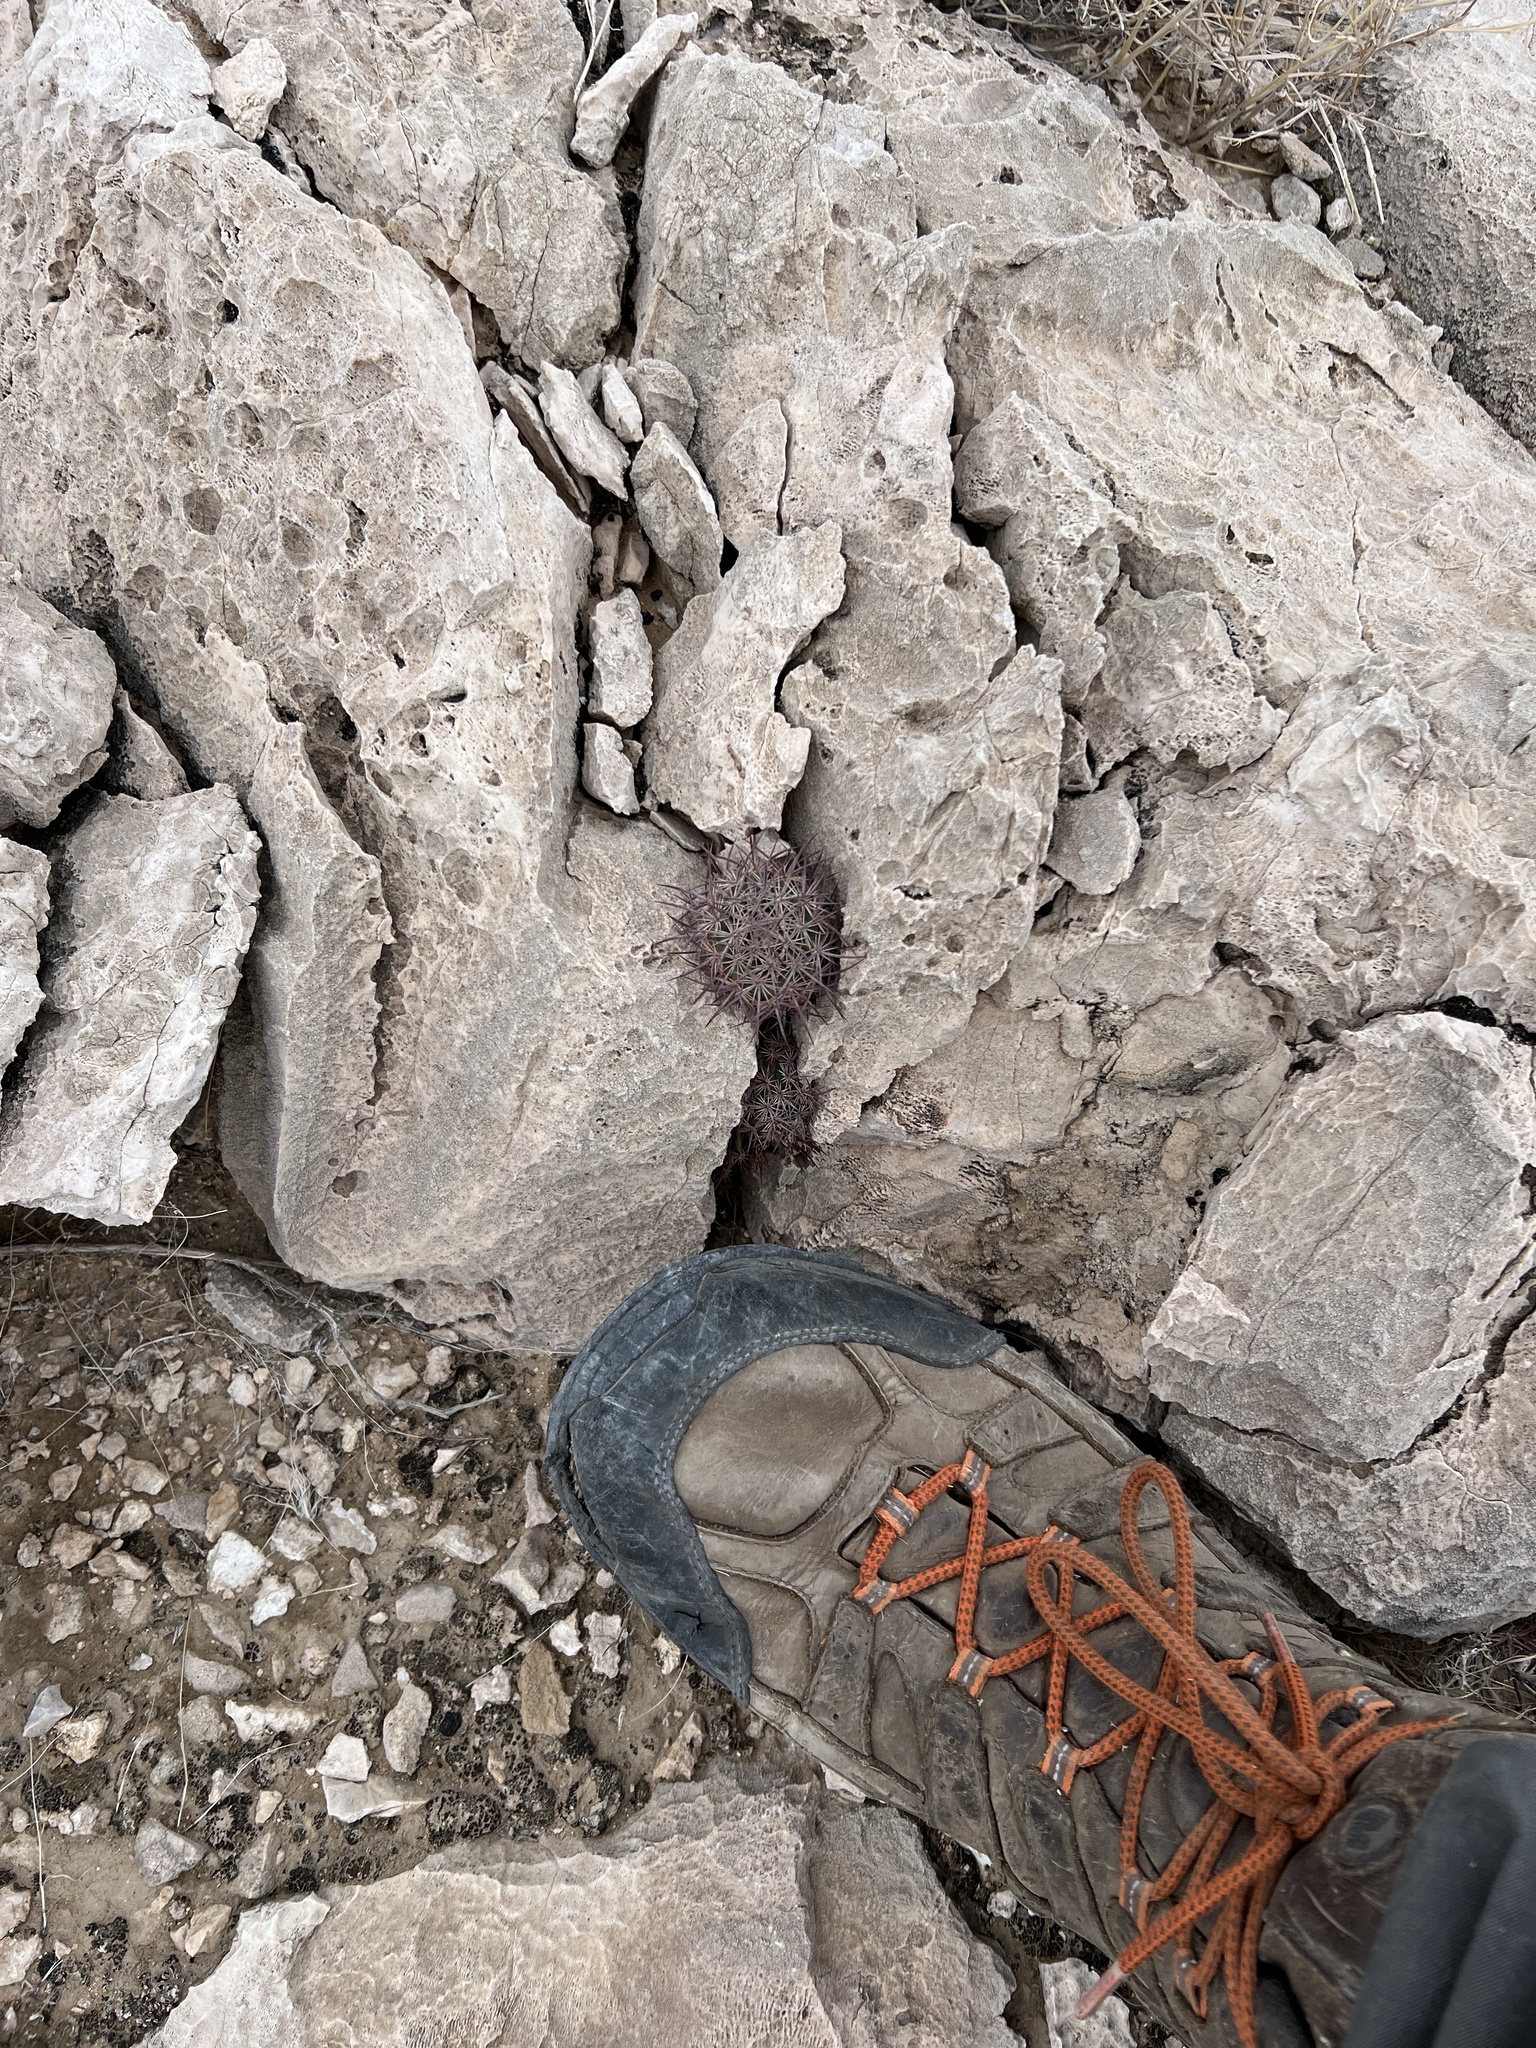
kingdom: Plantae
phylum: Tracheophyta
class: Magnoliopsida
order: Caryophyllales
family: Cactaceae
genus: Sclerocactus
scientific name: Sclerocactus johnsonii
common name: Eight-spine fishhook cactus
